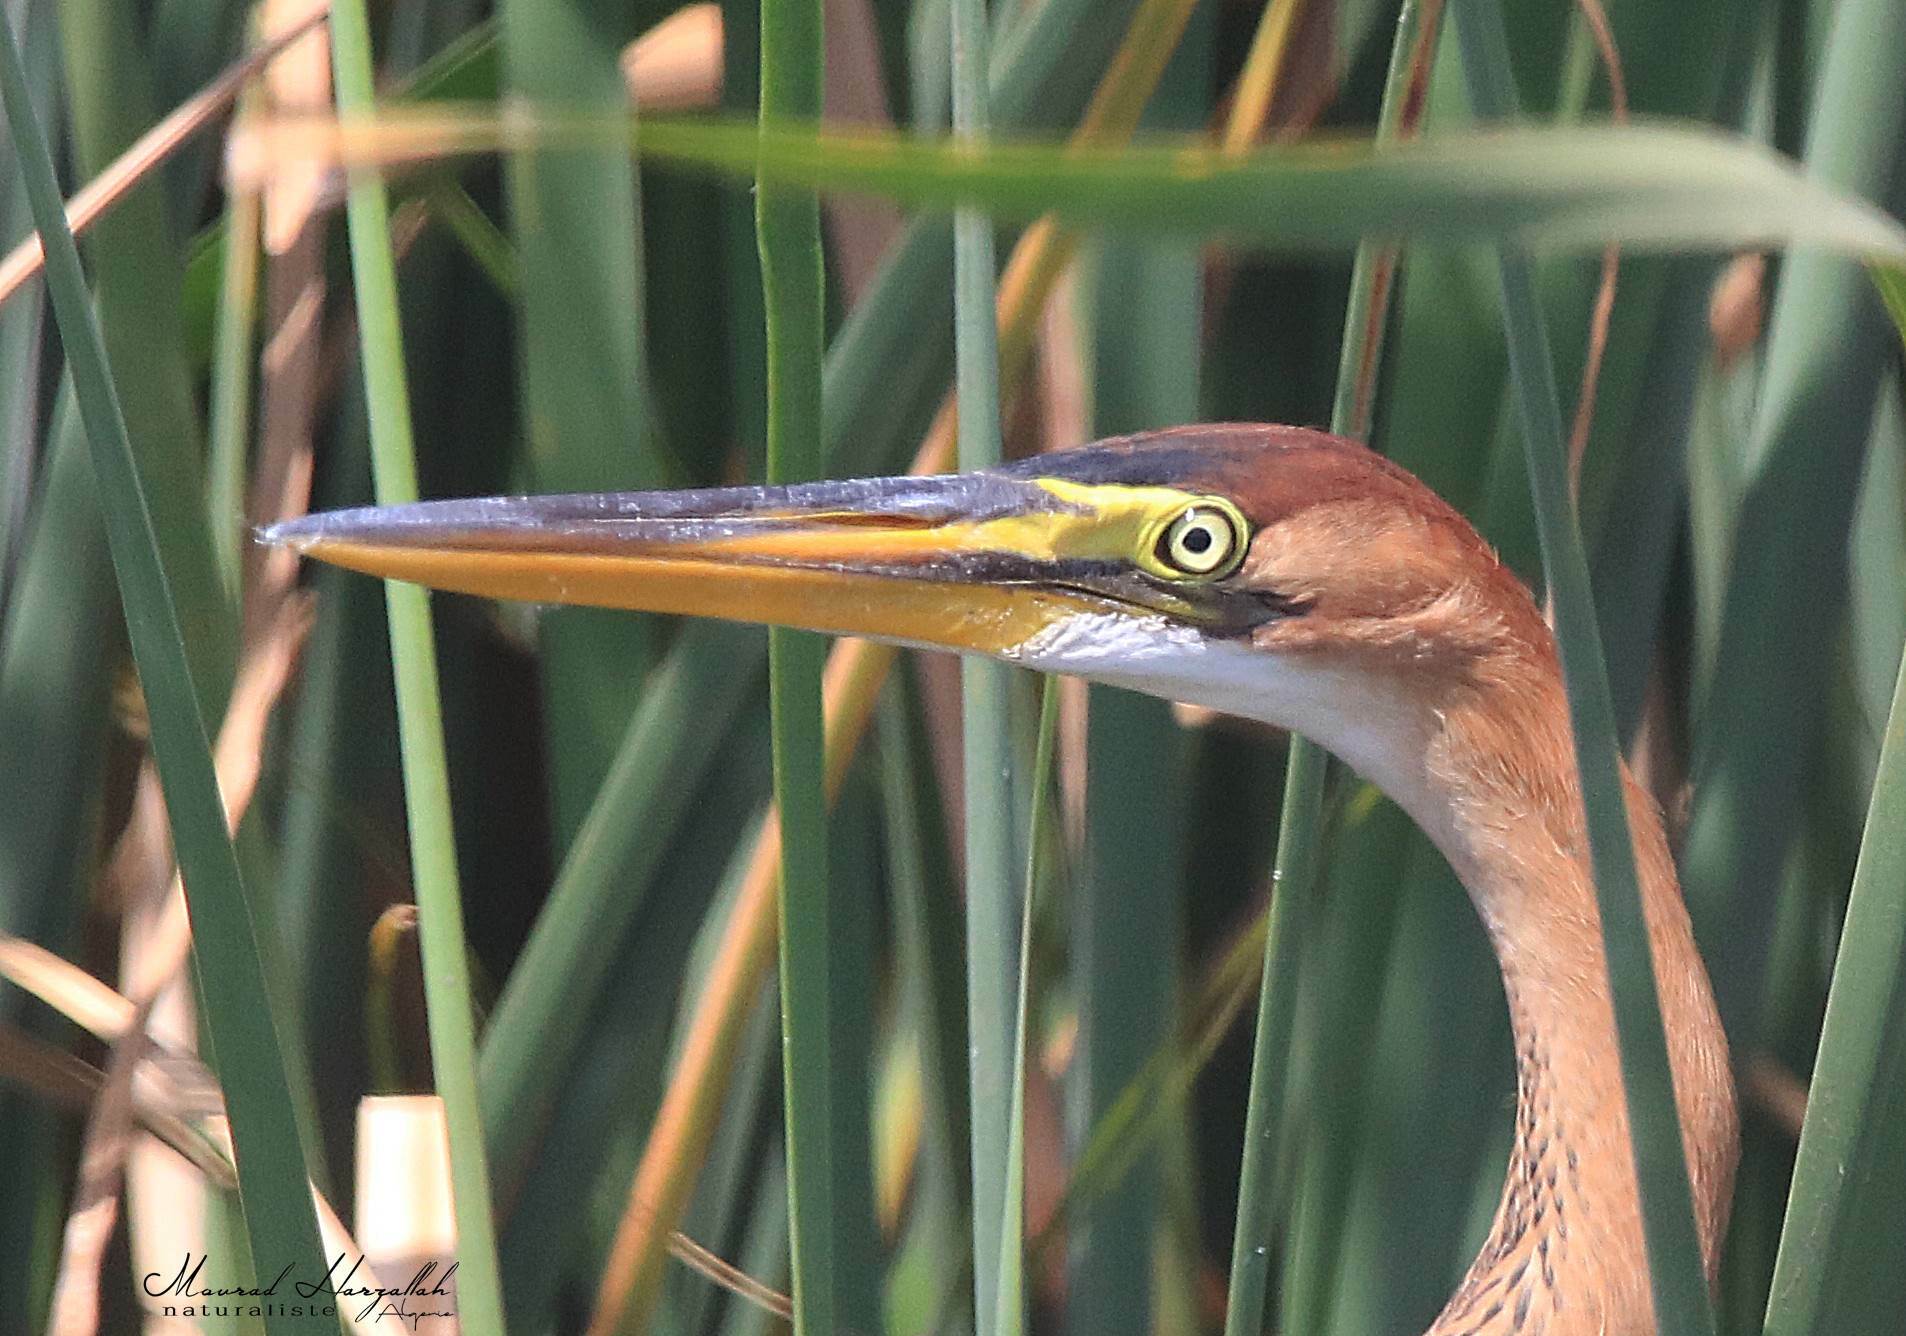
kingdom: Animalia
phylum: Chordata
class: Aves
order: Pelecaniformes
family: Ardeidae
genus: Ardea
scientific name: Ardea purpurea
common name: Purple heron
